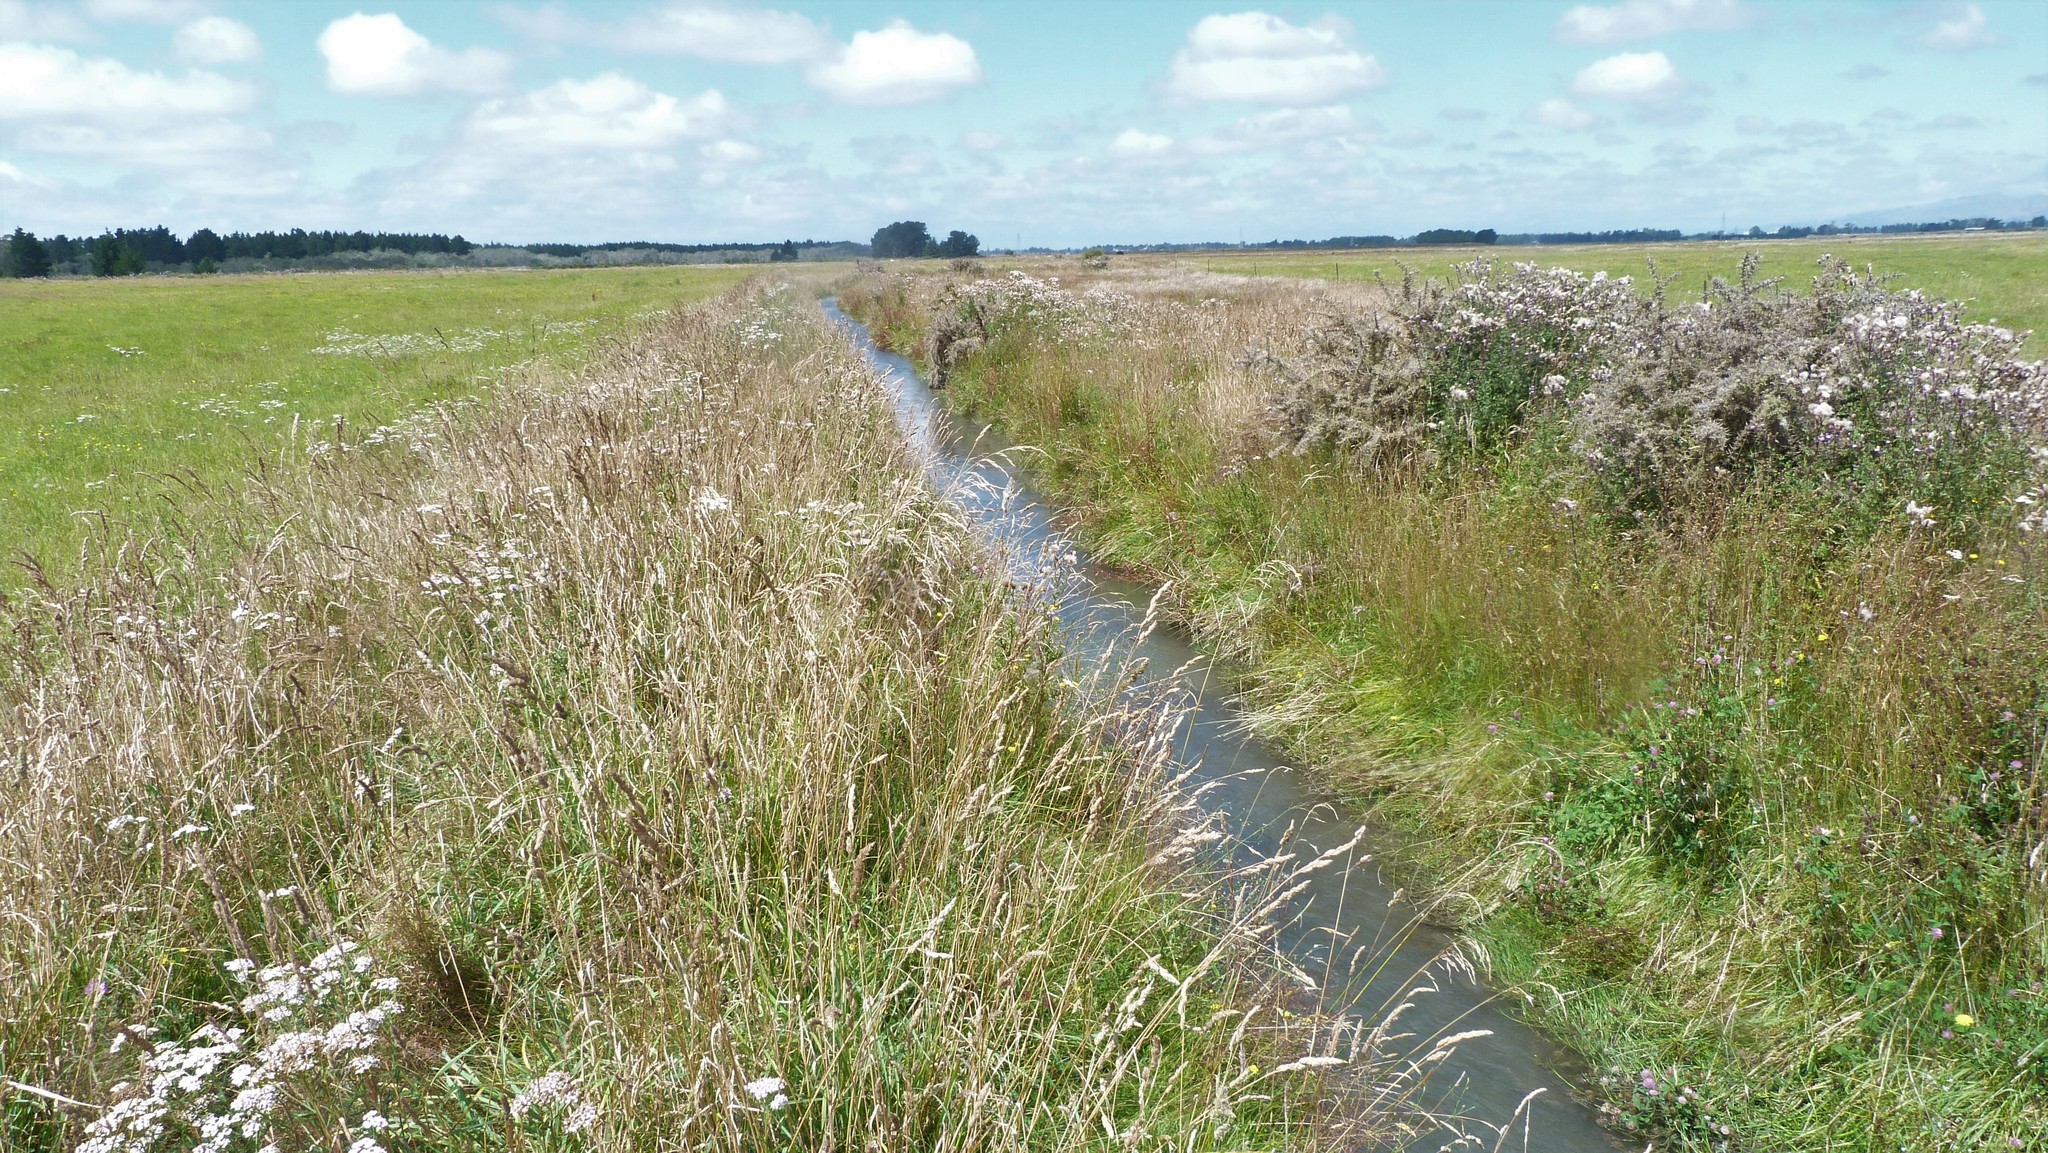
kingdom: Plantae
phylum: Tracheophyta
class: Magnoliopsida
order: Fabales
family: Fabaceae
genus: Ulex
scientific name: Ulex europaeus
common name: Common gorse
